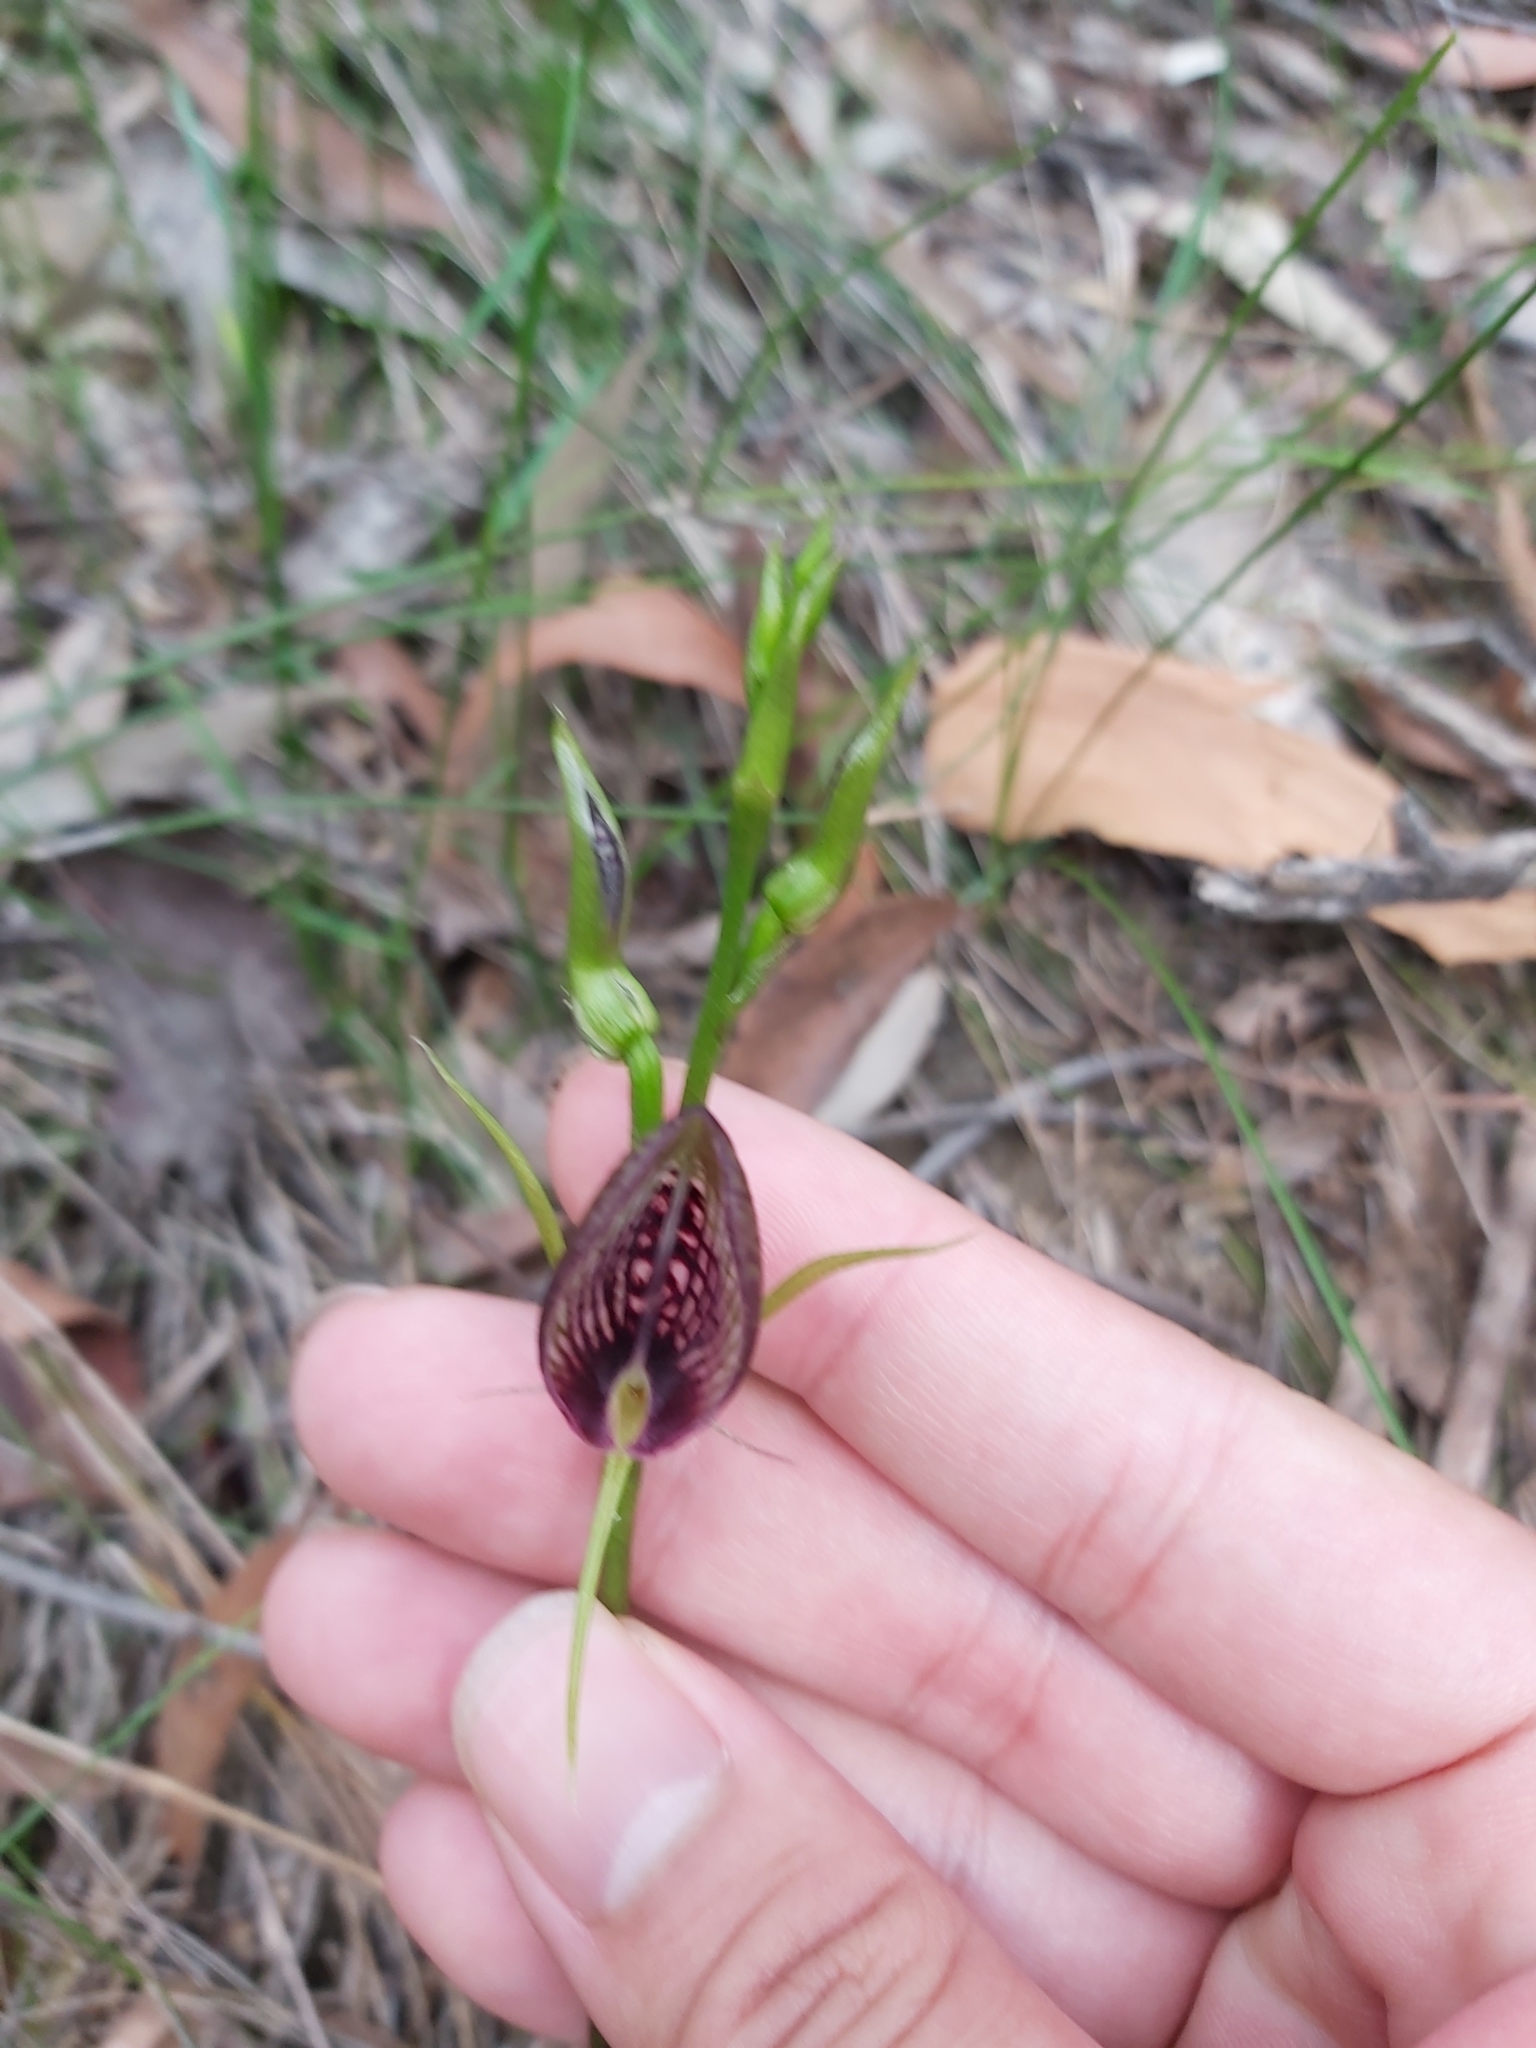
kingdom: Plantae
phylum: Tracheophyta
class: Liliopsida
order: Asparagales
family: Orchidaceae
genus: Cryptostylis
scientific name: Cryptostylis erecta
